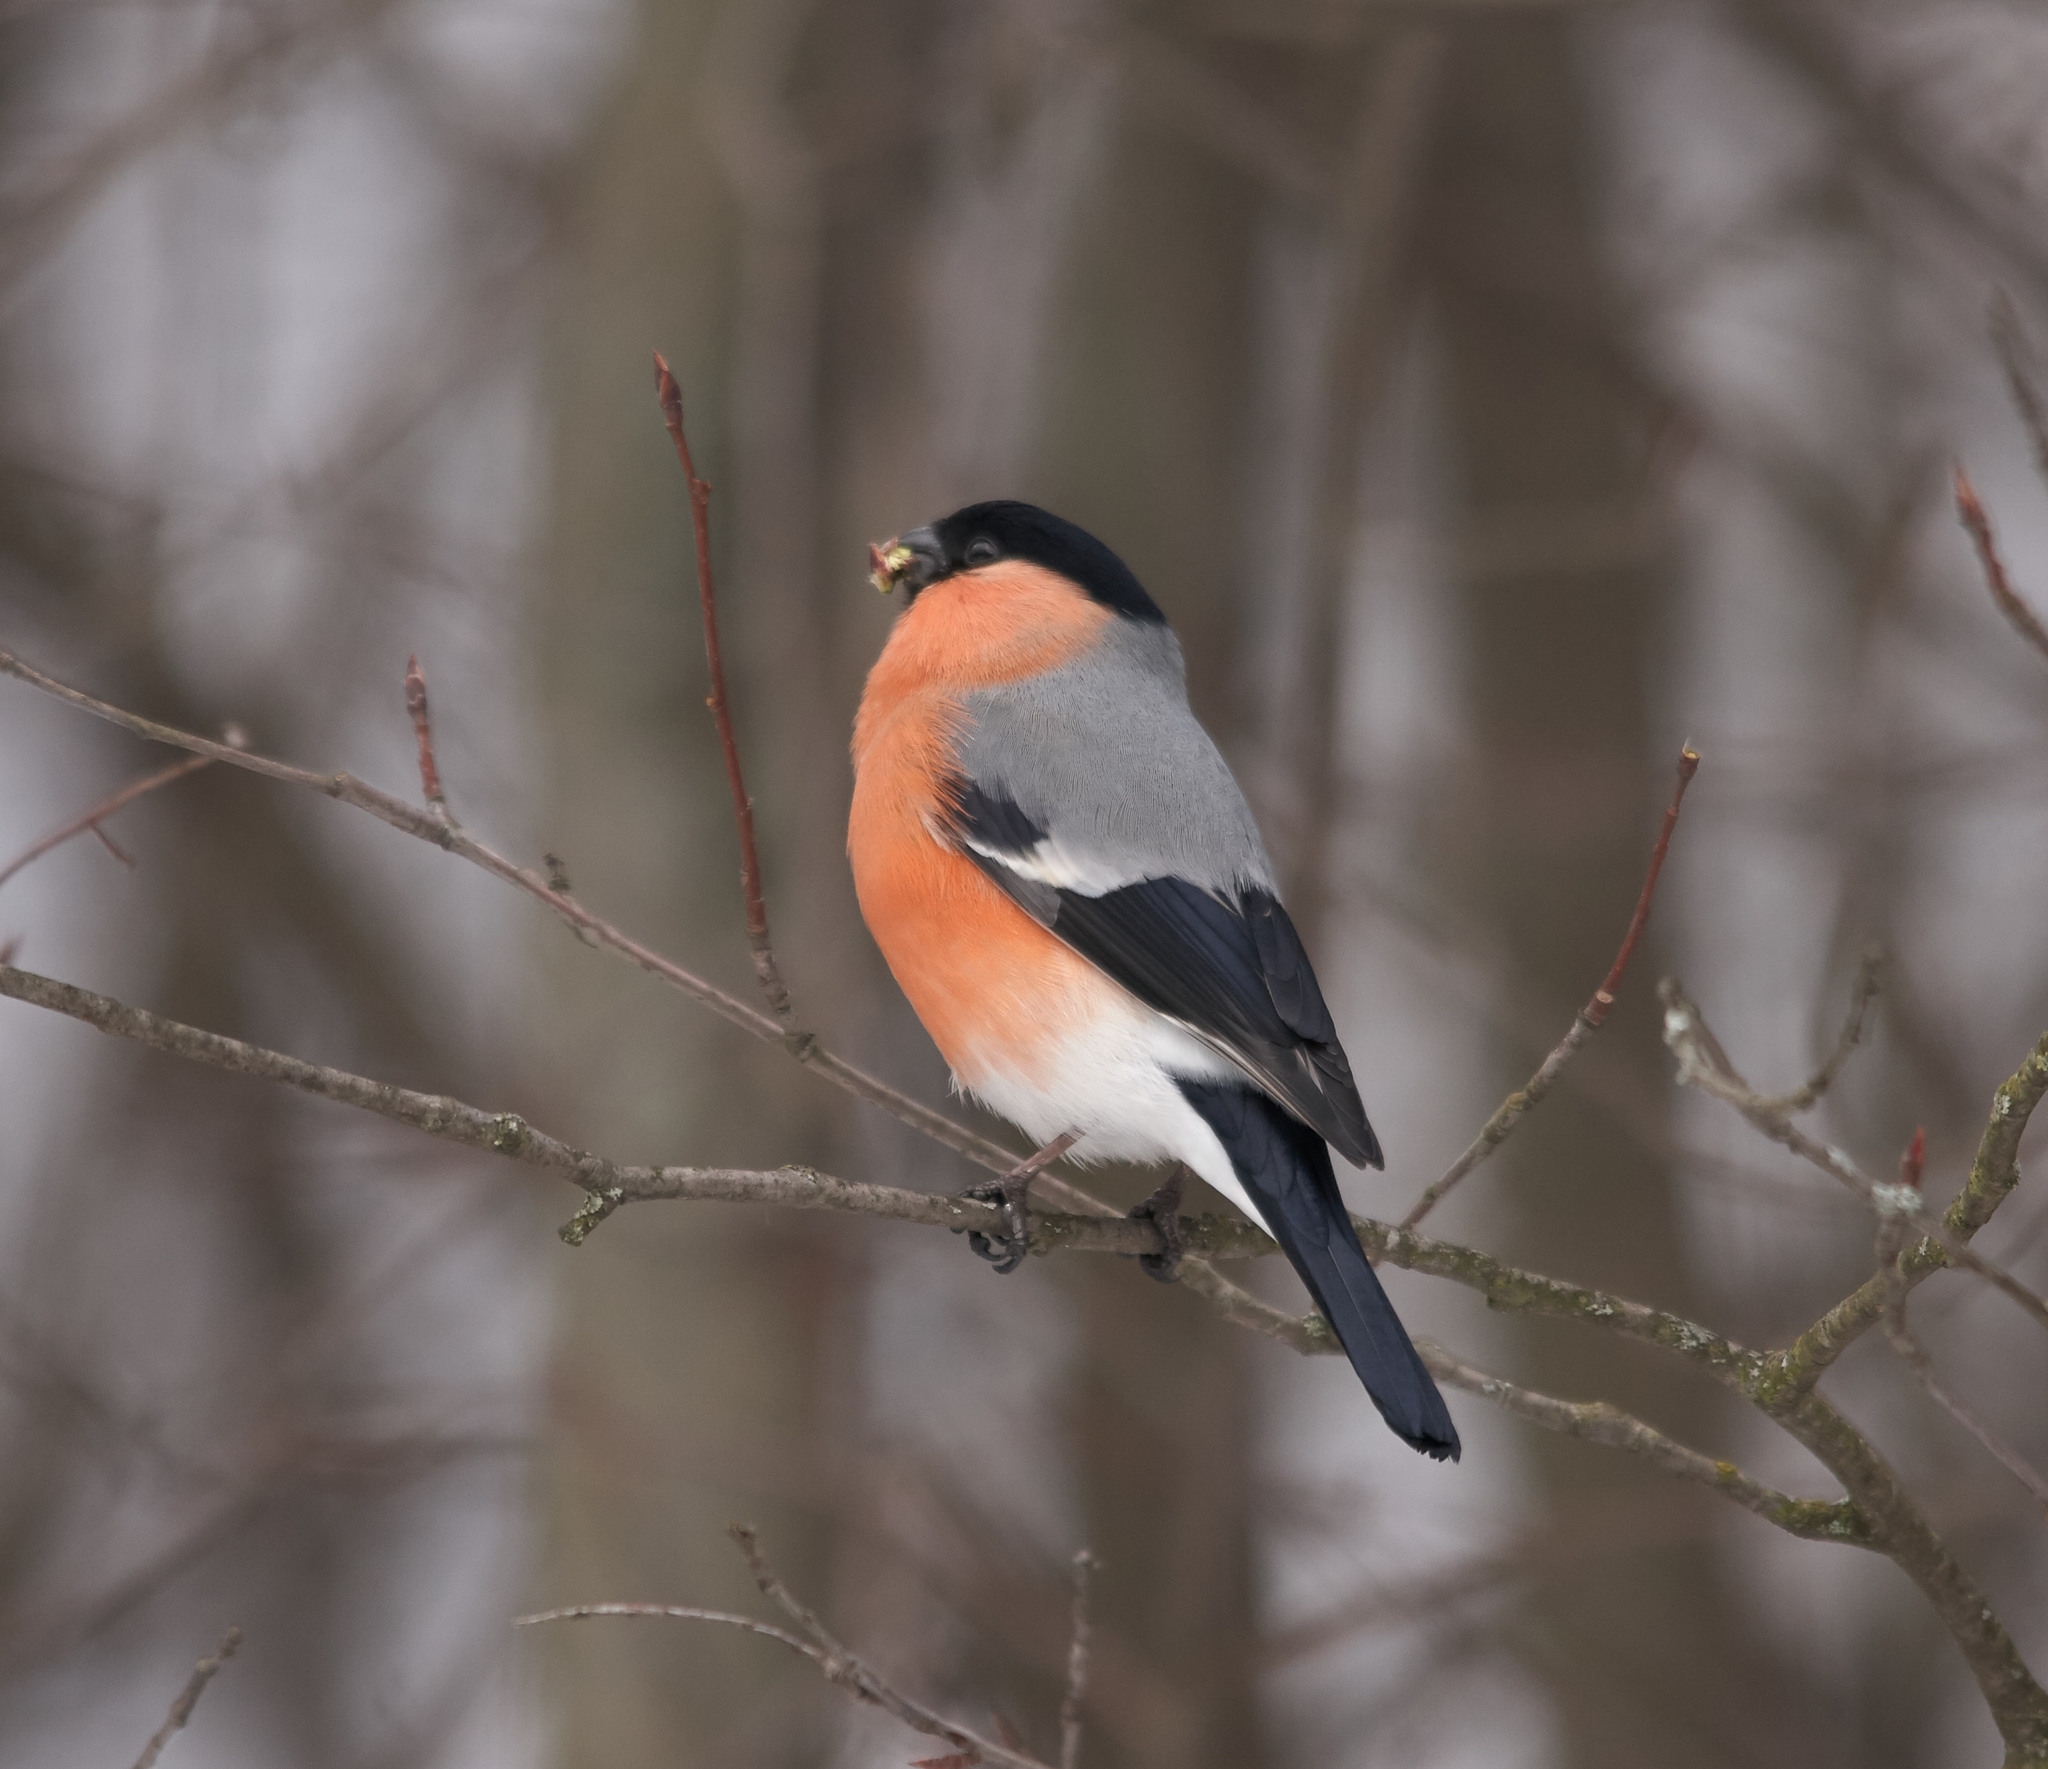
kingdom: Animalia
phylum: Chordata
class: Aves
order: Passeriformes
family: Fringillidae
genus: Pyrrhula
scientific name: Pyrrhula pyrrhula
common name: Eurasian bullfinch
